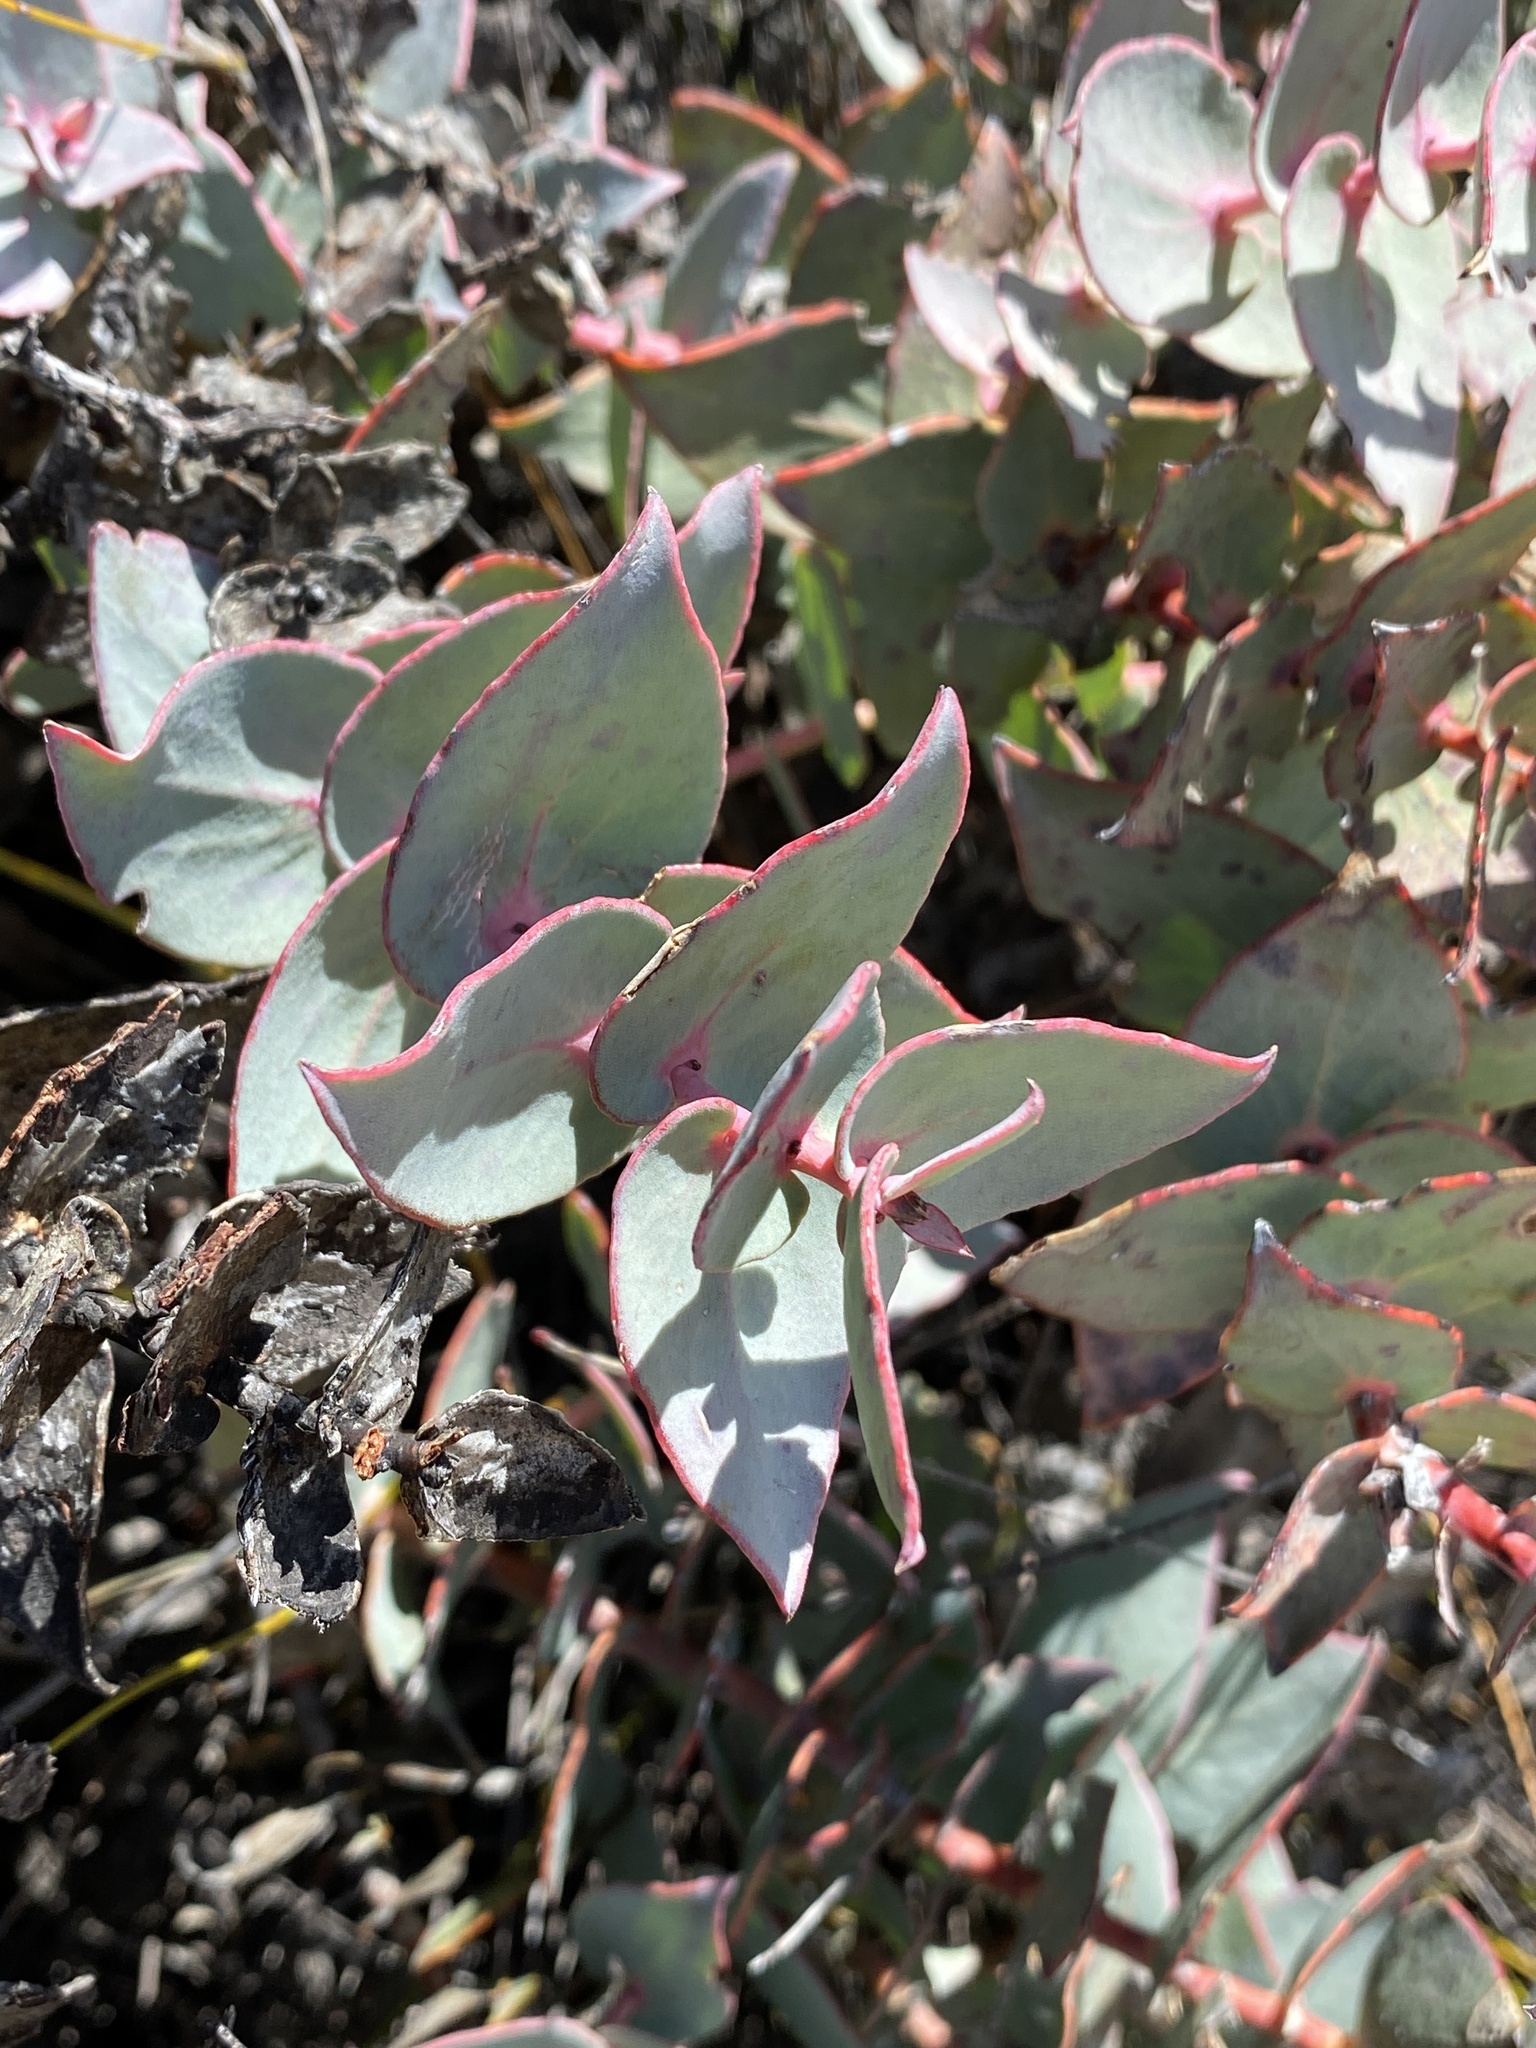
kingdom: Plantae
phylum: Tracheophyta
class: Magnoliopsida
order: Proteales
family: Proteaceae
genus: Protea
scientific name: Protea amplexicaulis
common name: Clasping-leaf sugarbush
